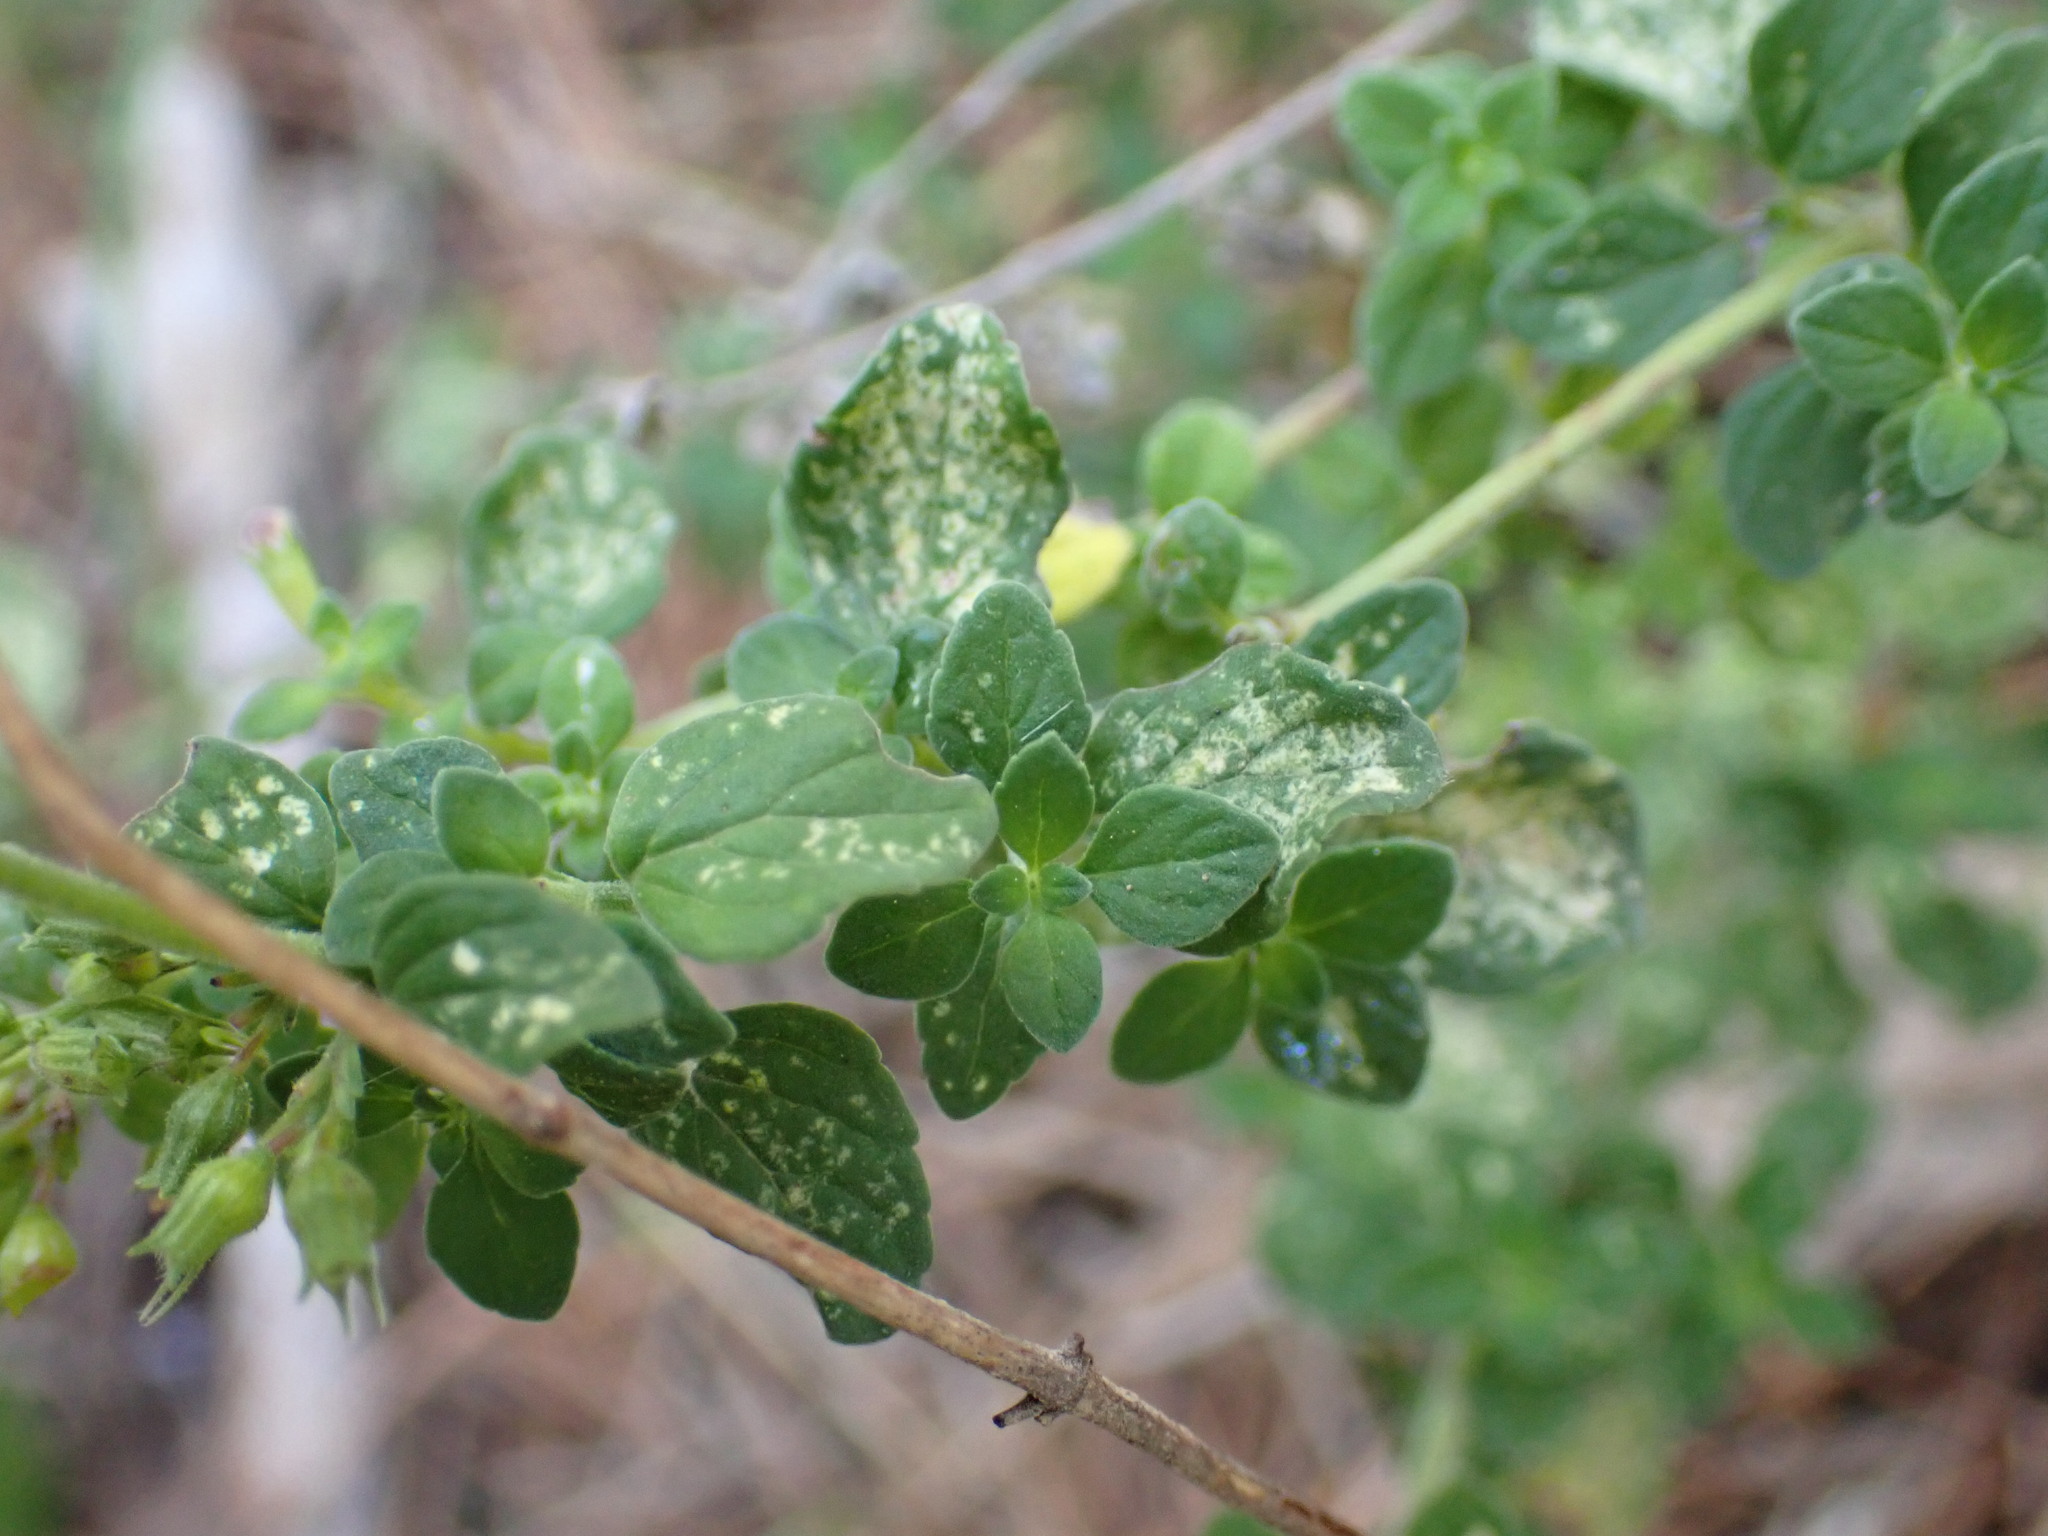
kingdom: Plantae
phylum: Tracheophyta
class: Magnoliopsida
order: Lamiales
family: Lamiaceae
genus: Clinopodium
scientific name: Clinopodium nepeta
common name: Lesser calamint
